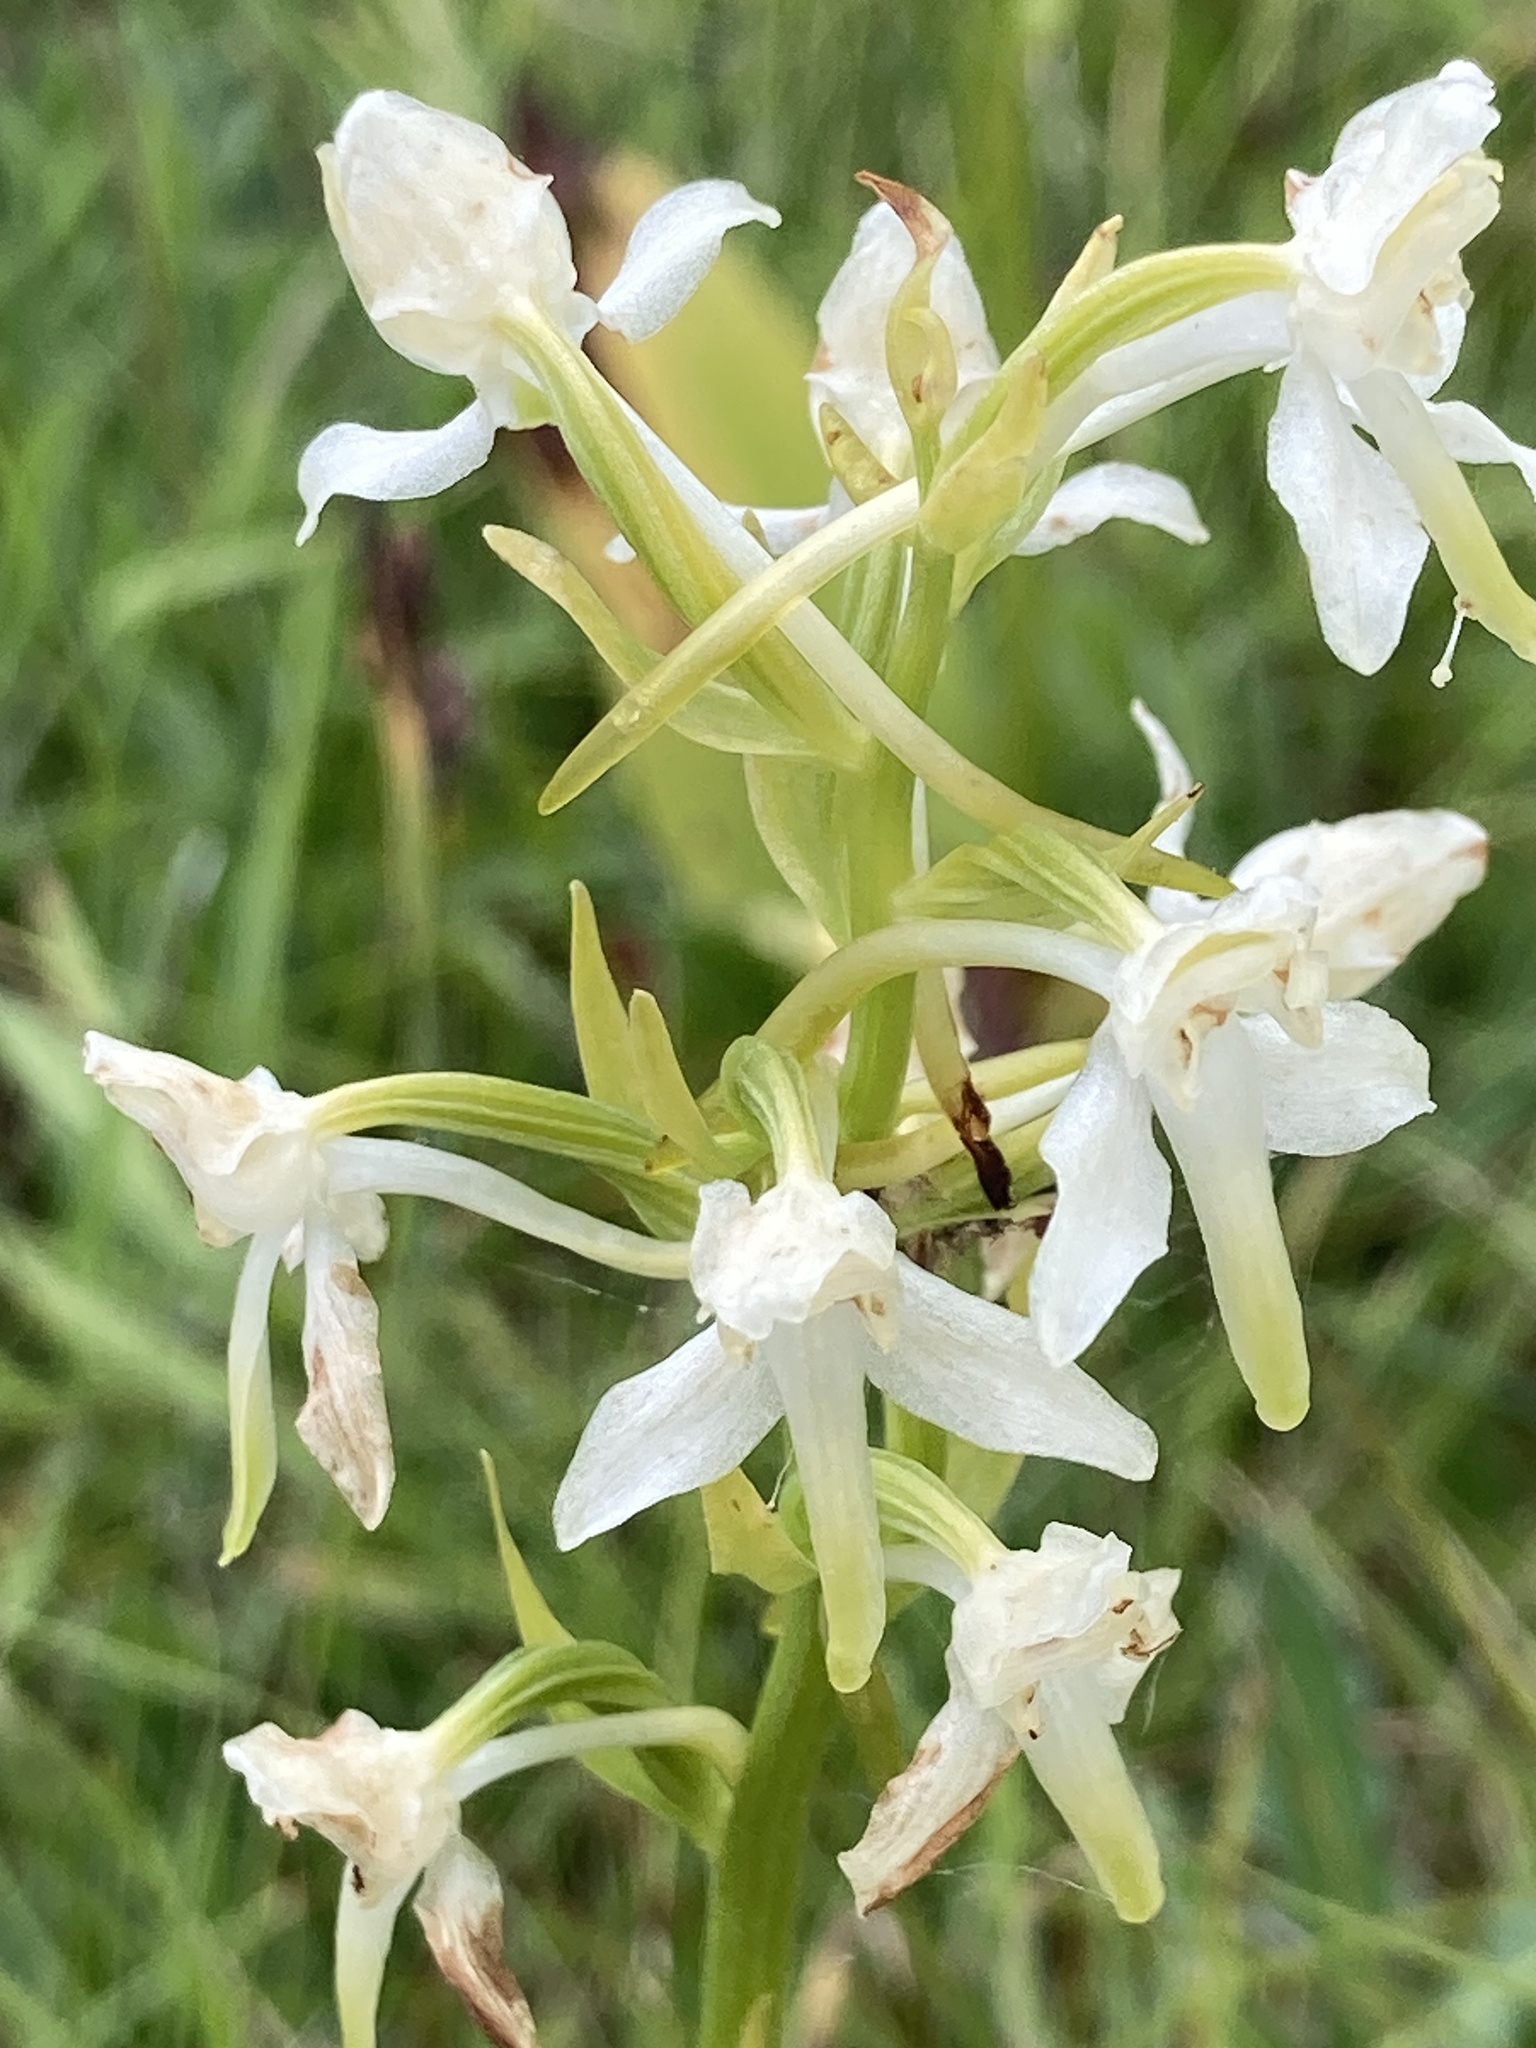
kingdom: Plantae
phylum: Tracheophyta
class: Liliopsida
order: Asparagales
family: Orchidaceae
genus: Platanthera
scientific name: Platanthera chlorantha
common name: Greater butterfly-orchid
